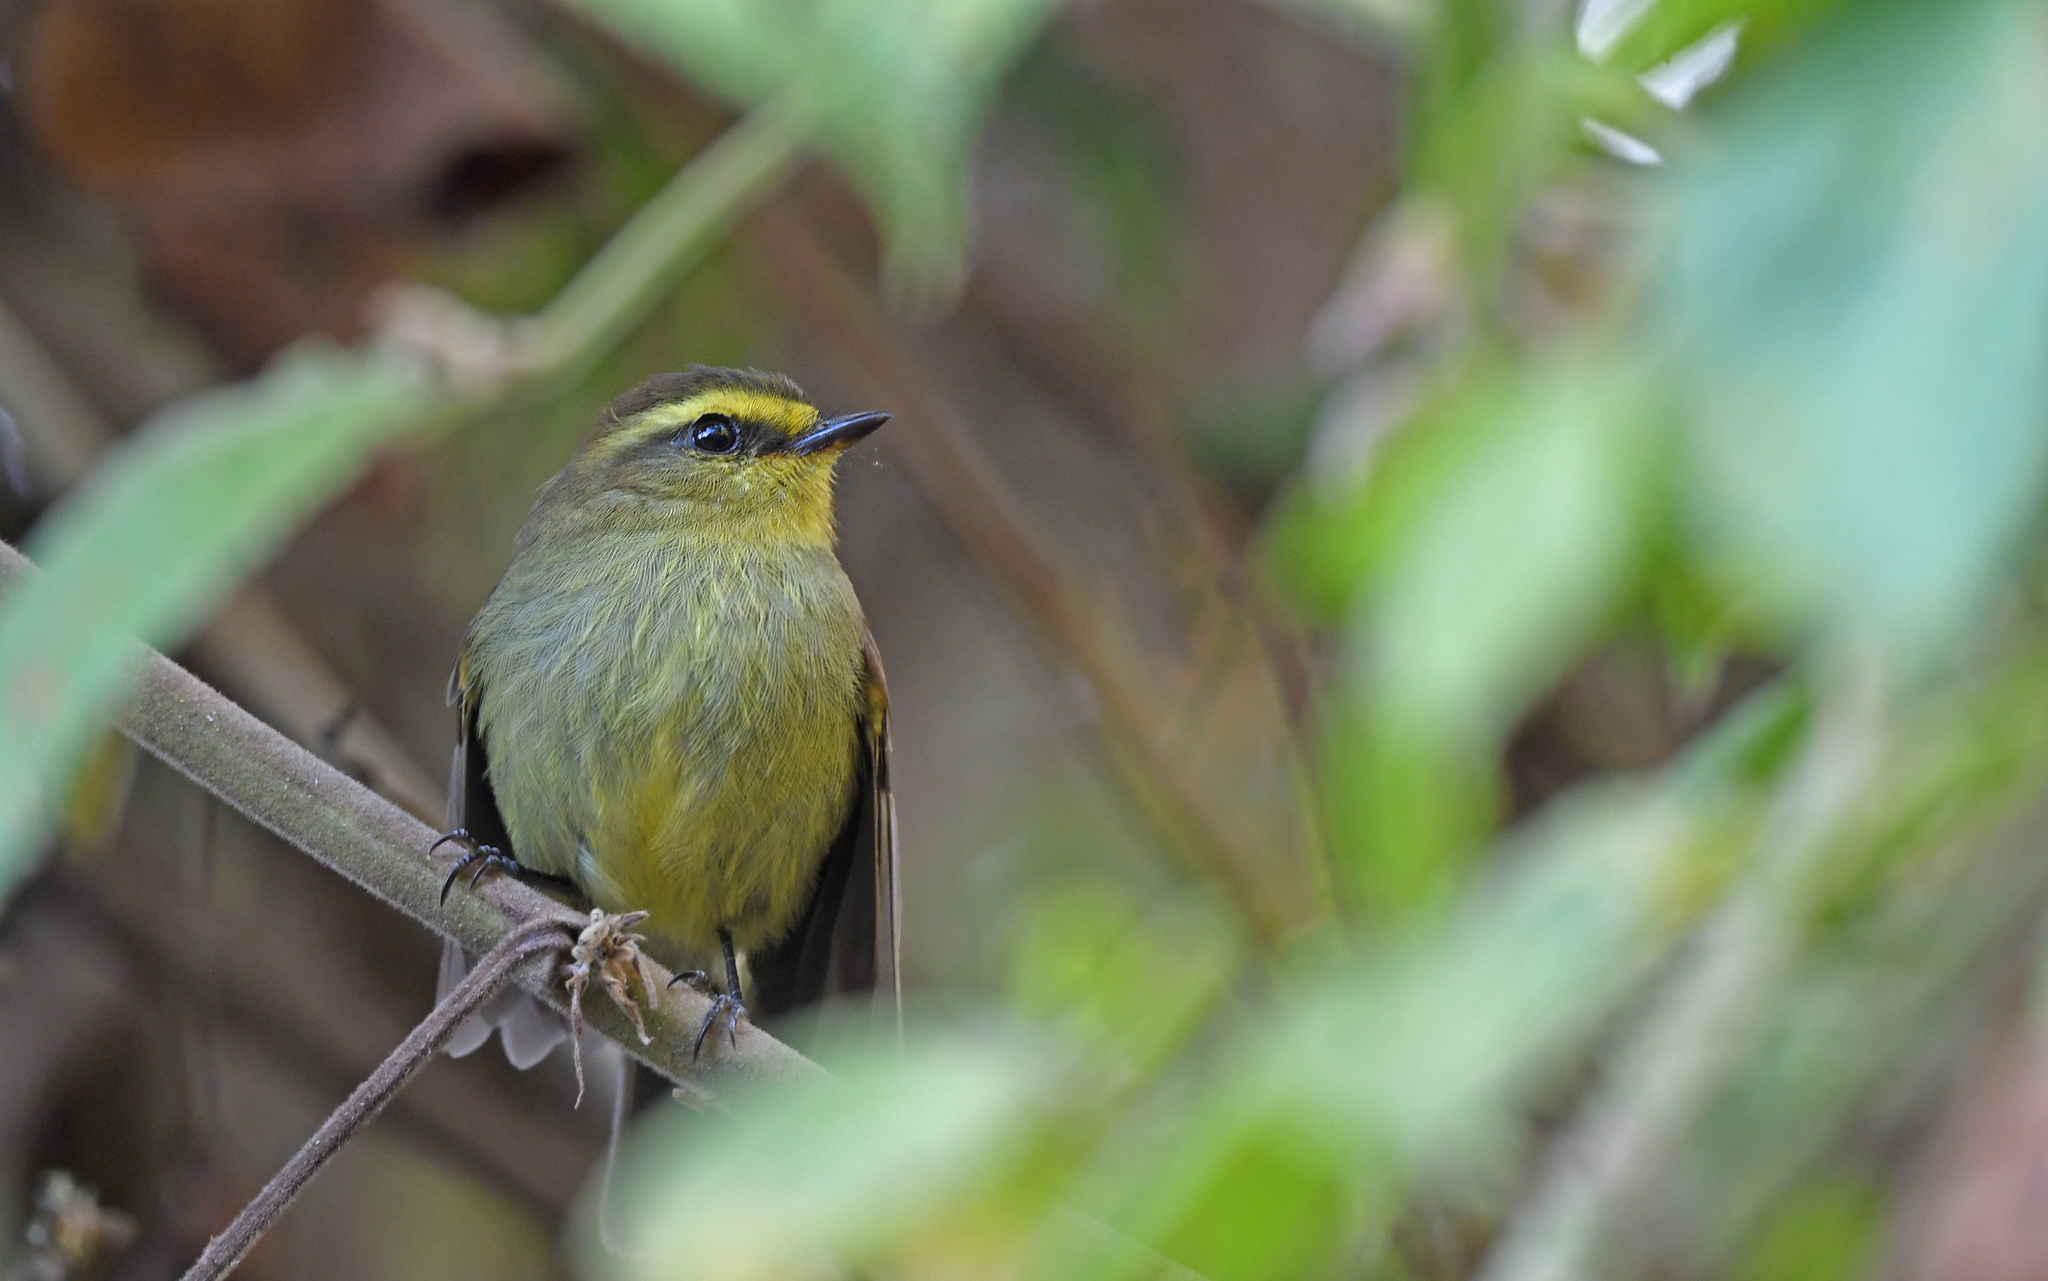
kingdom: Animalia
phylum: Chordata
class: Aves
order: Passeriformes
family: Tyrannidae
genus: Ochthoeca
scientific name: Ochthoeca diadema
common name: Yellow-bellied chat-tyrant
